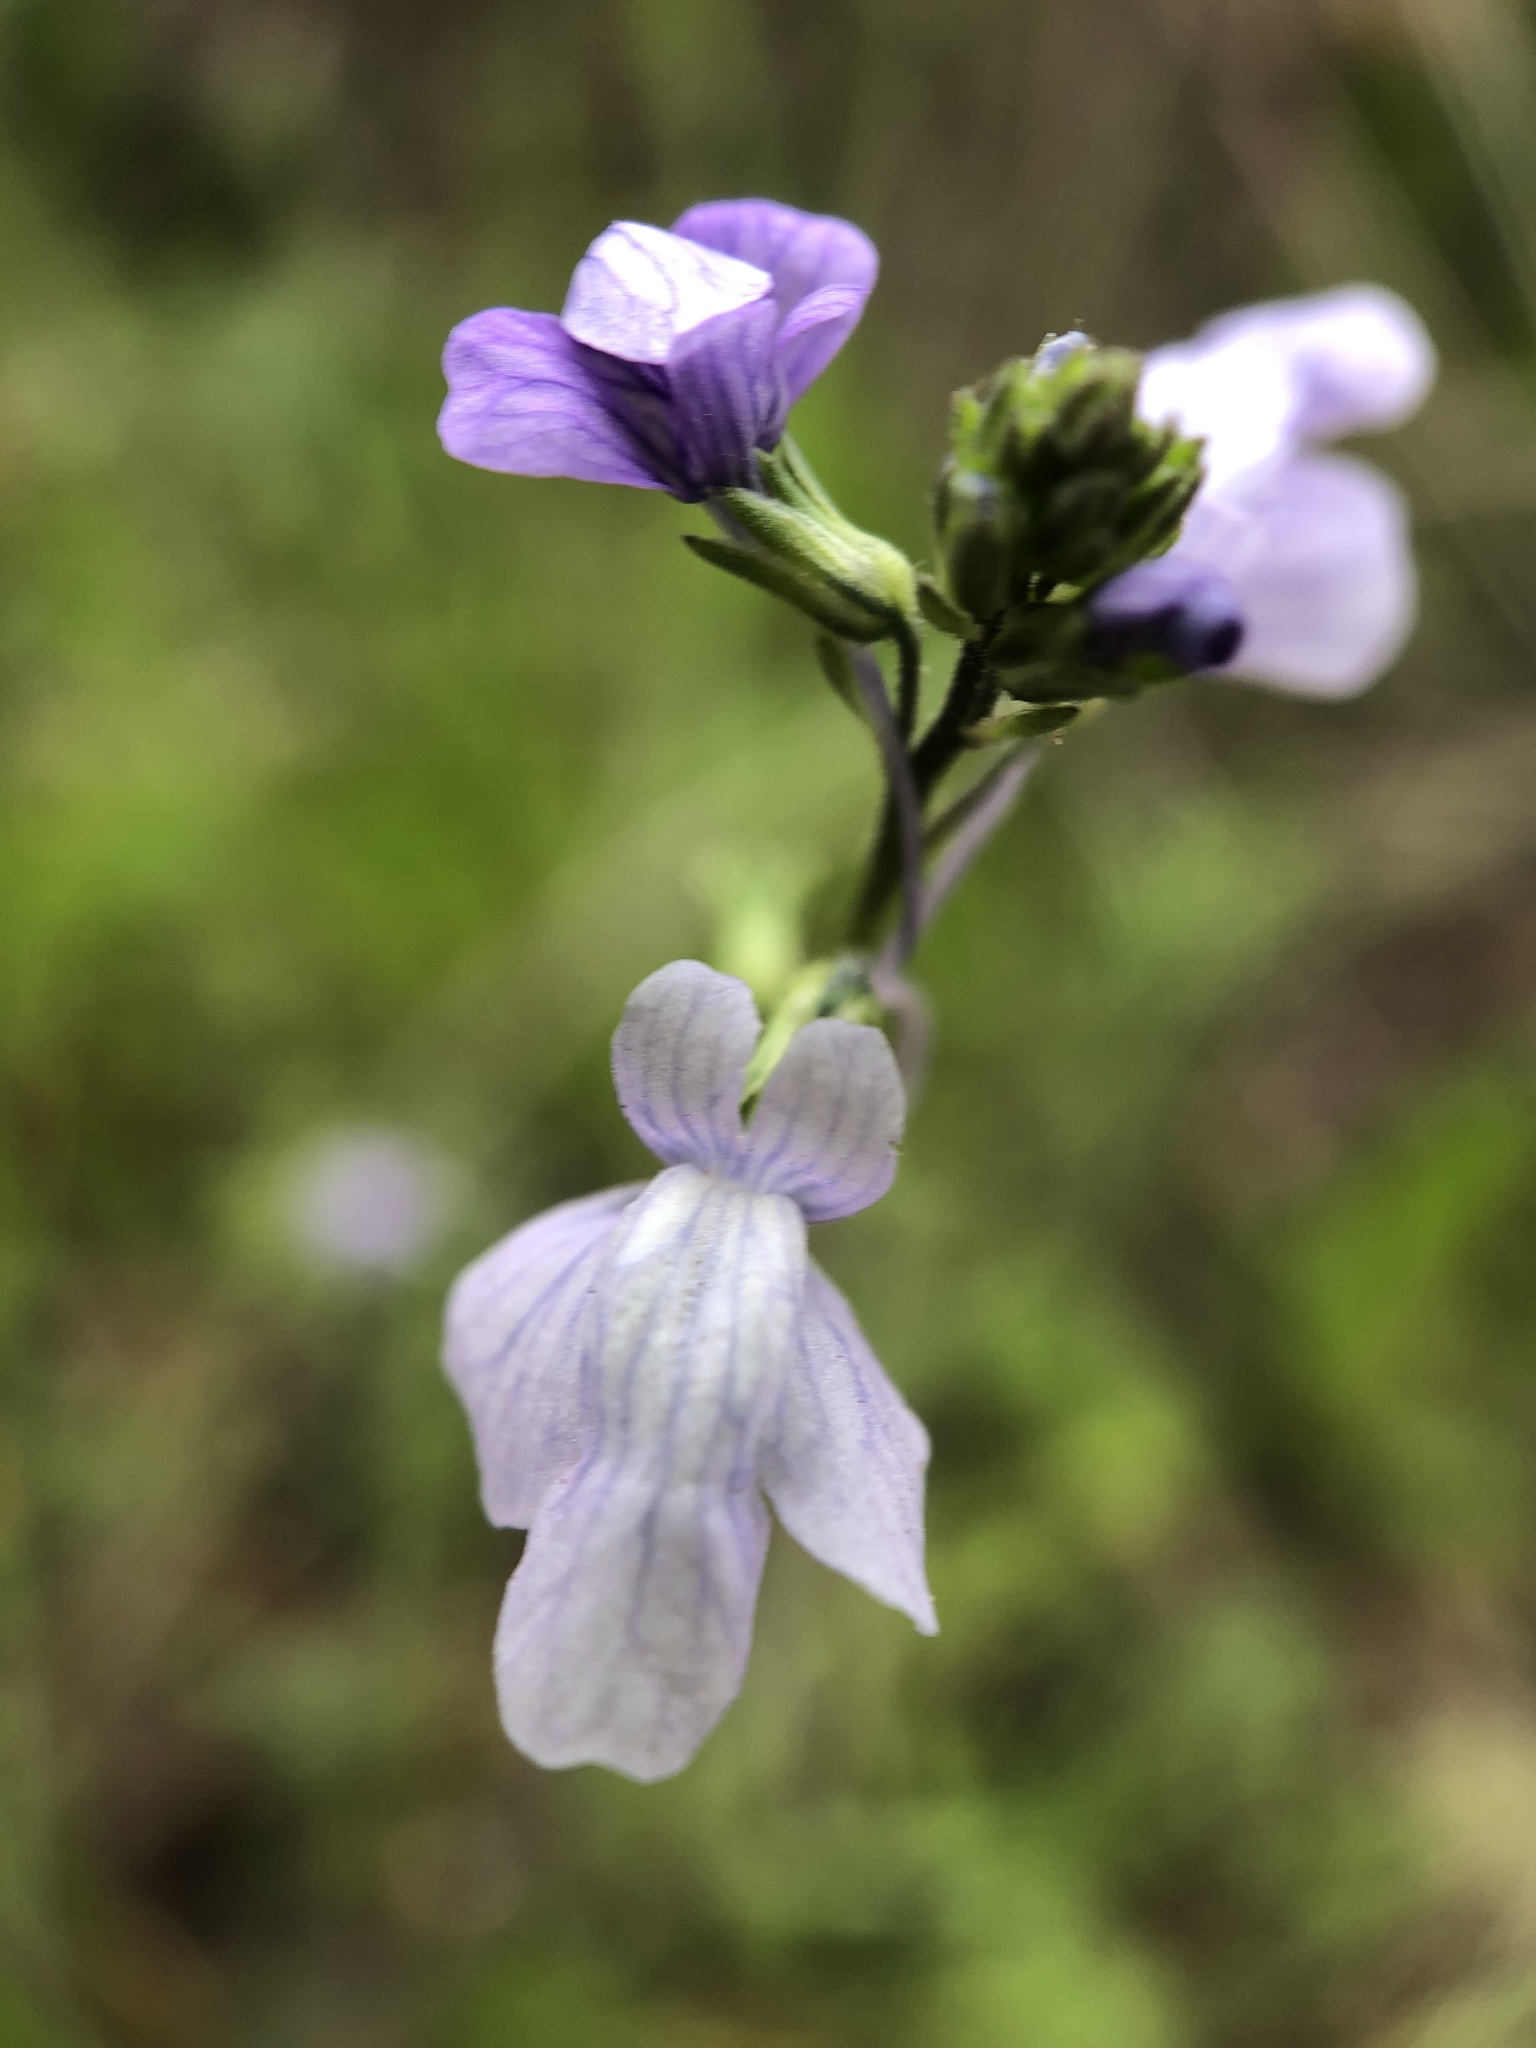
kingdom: Plantae
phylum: Tracheophyta
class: Magnoliopsida
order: Lamiales
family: Plantaginaceae
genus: Nuttallanthus
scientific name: Nuttallanthus texanus
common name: Texas toadflax
